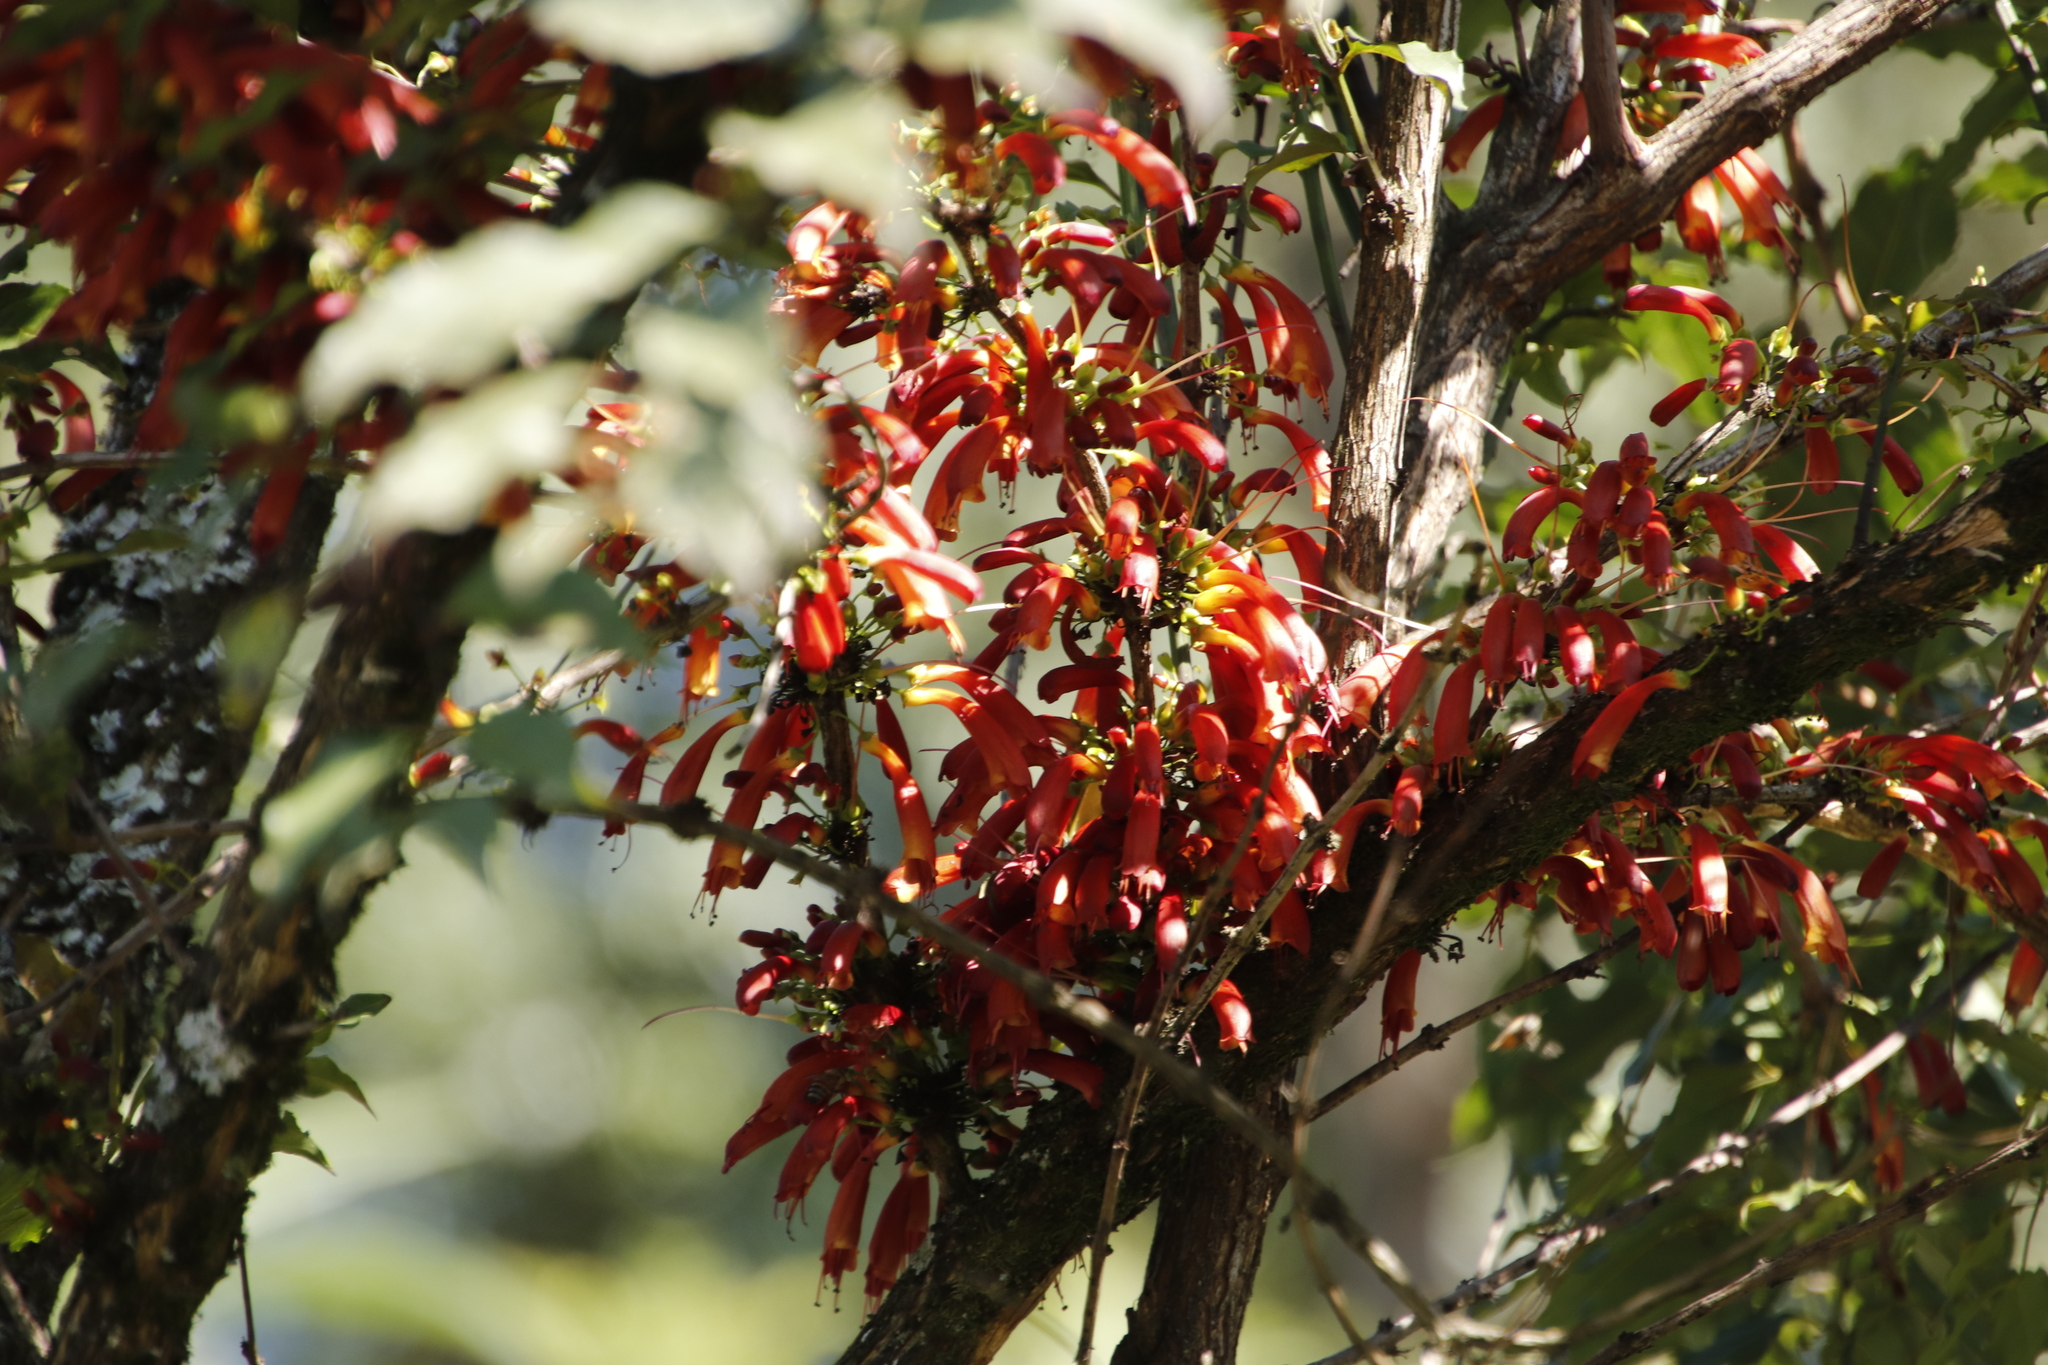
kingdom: Plantae
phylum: Tracheophyta
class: Magnoliopsida
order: Lamiales
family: Stilbaceae
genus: Halleria
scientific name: Halleria lucida
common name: Tree fuschia
